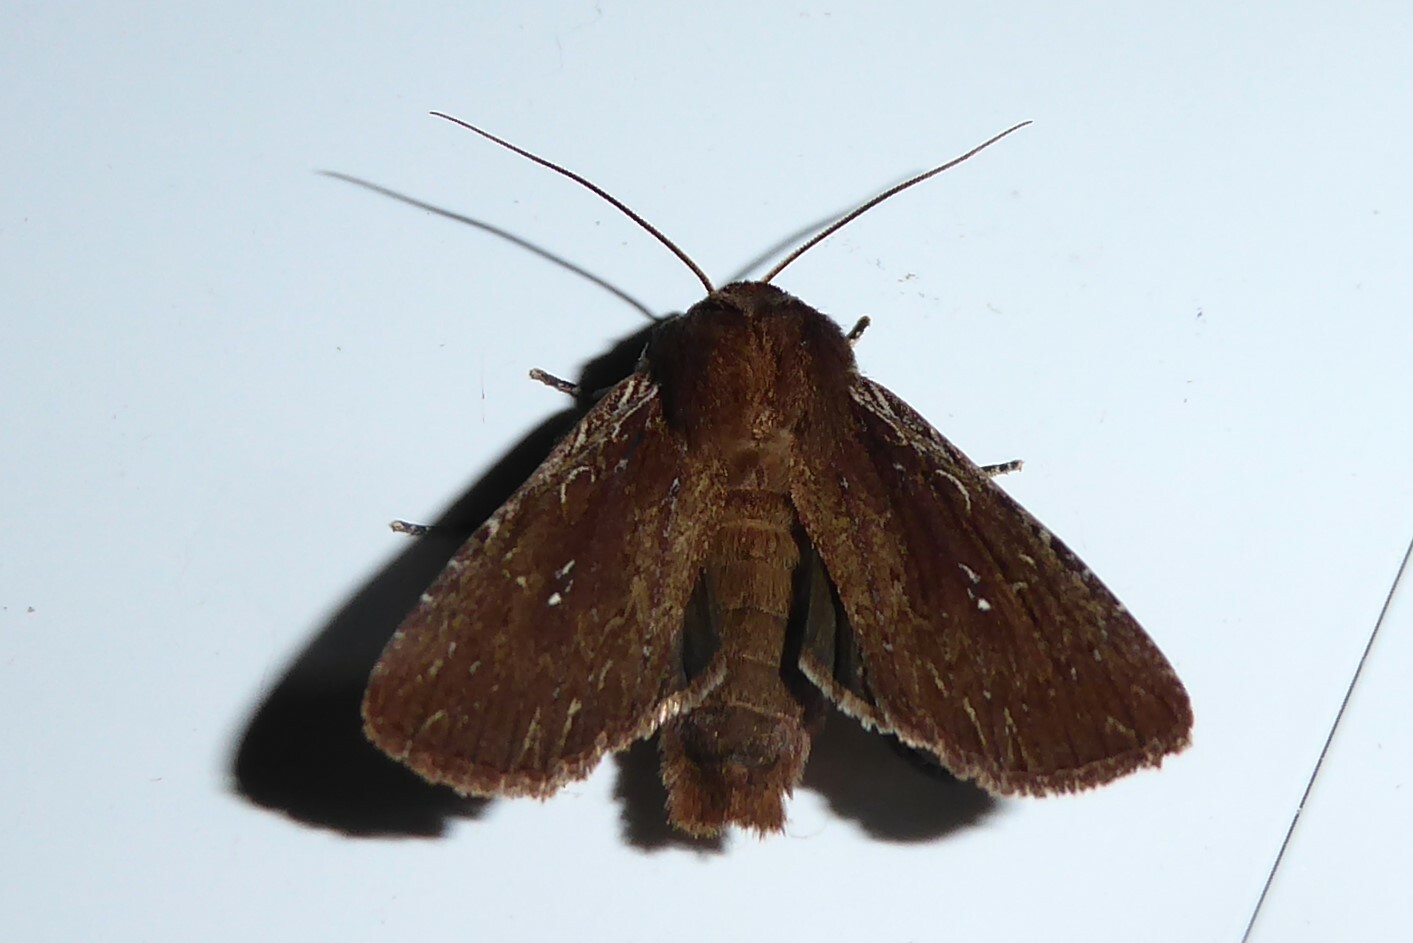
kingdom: Animalia
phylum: Arthropoda
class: Insecta
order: Lepidoptera
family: Noctuidae
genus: Ichneutica
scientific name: Ichneutica
